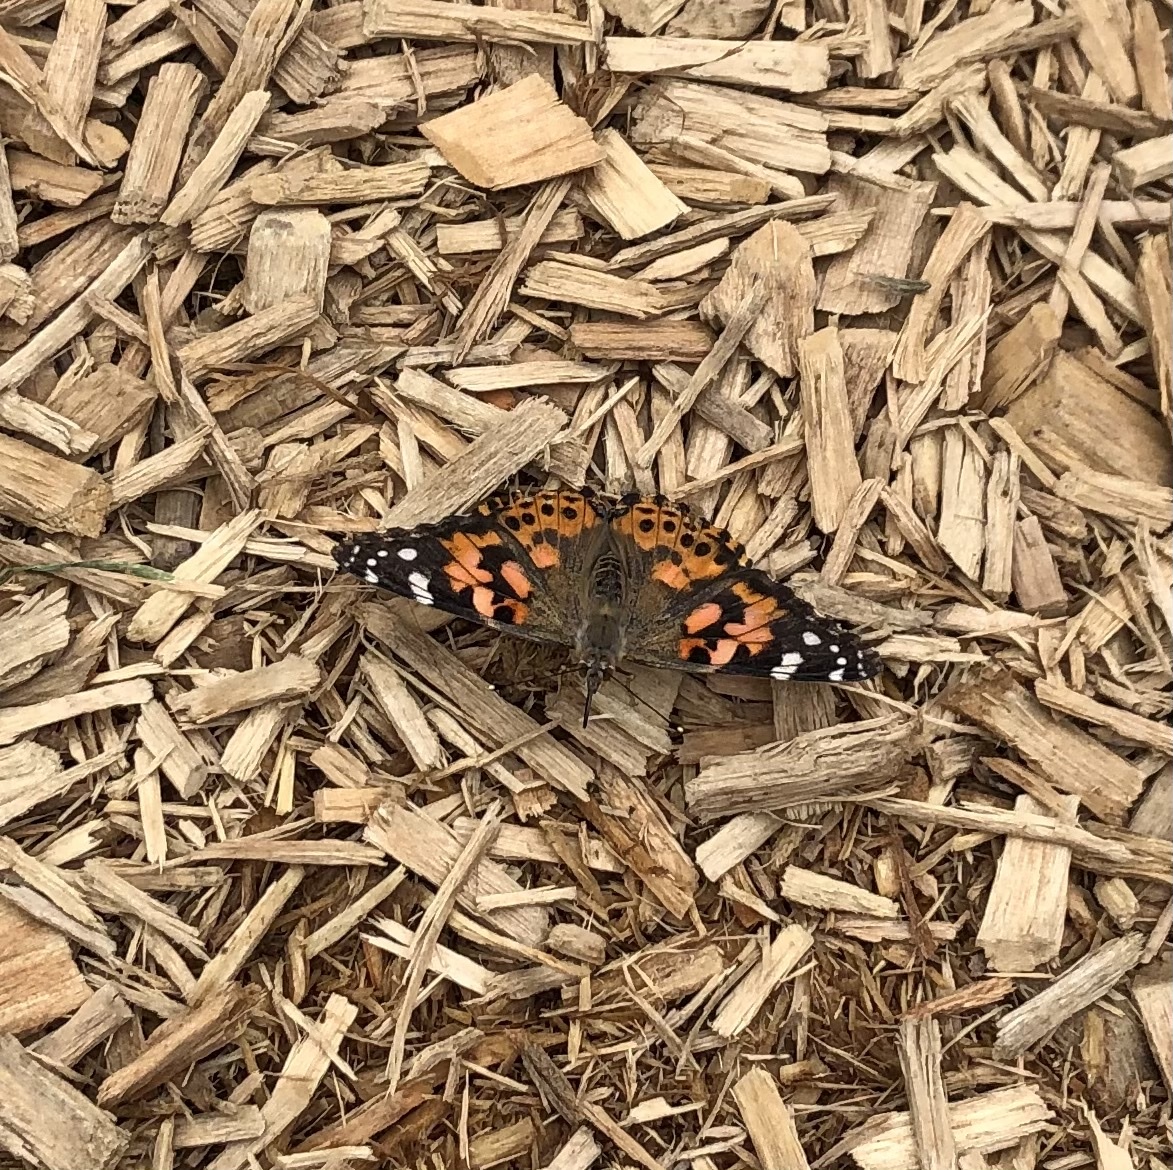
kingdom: Animalia
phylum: Arthropoda
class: Insecta
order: Lepidoptera
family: Nymphalidae
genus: Vanessa
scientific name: Vanessa cardui
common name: Painted lady
